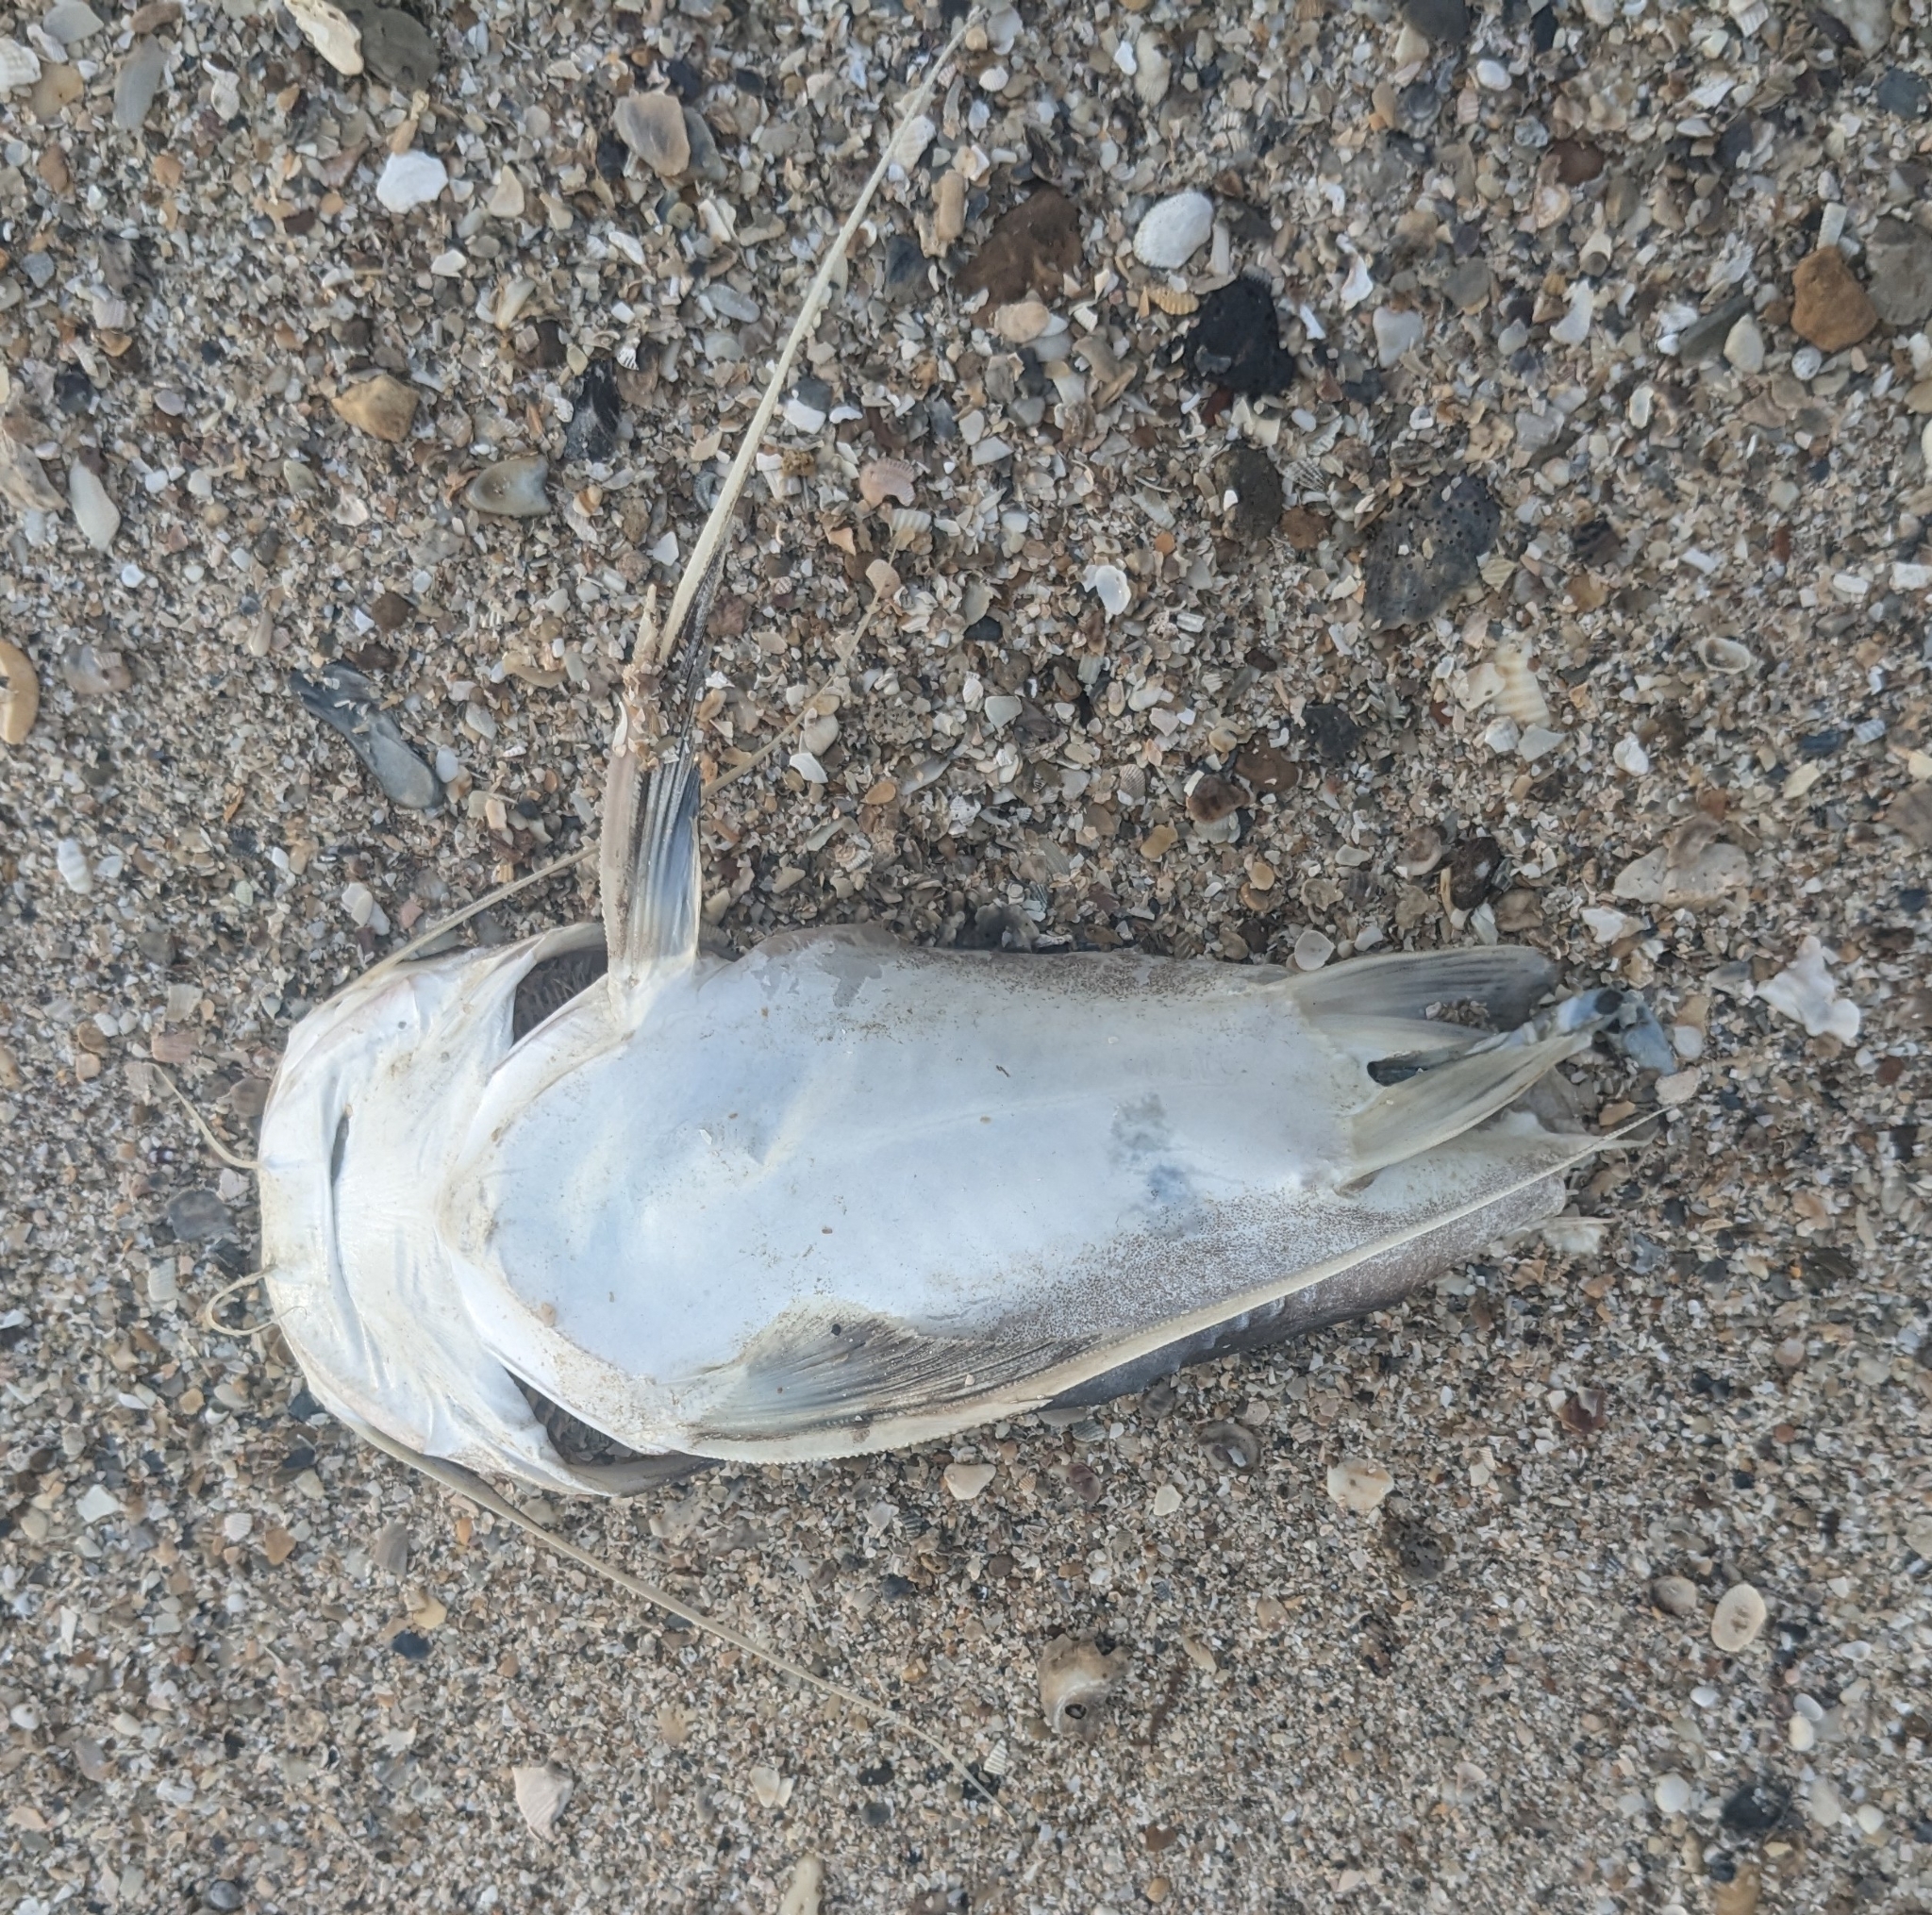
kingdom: Animalia
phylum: Chordata
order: Siluriformes
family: Ariidae
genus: Bagre
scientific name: Bagre marinus
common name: Gafftopsail sea catfish
